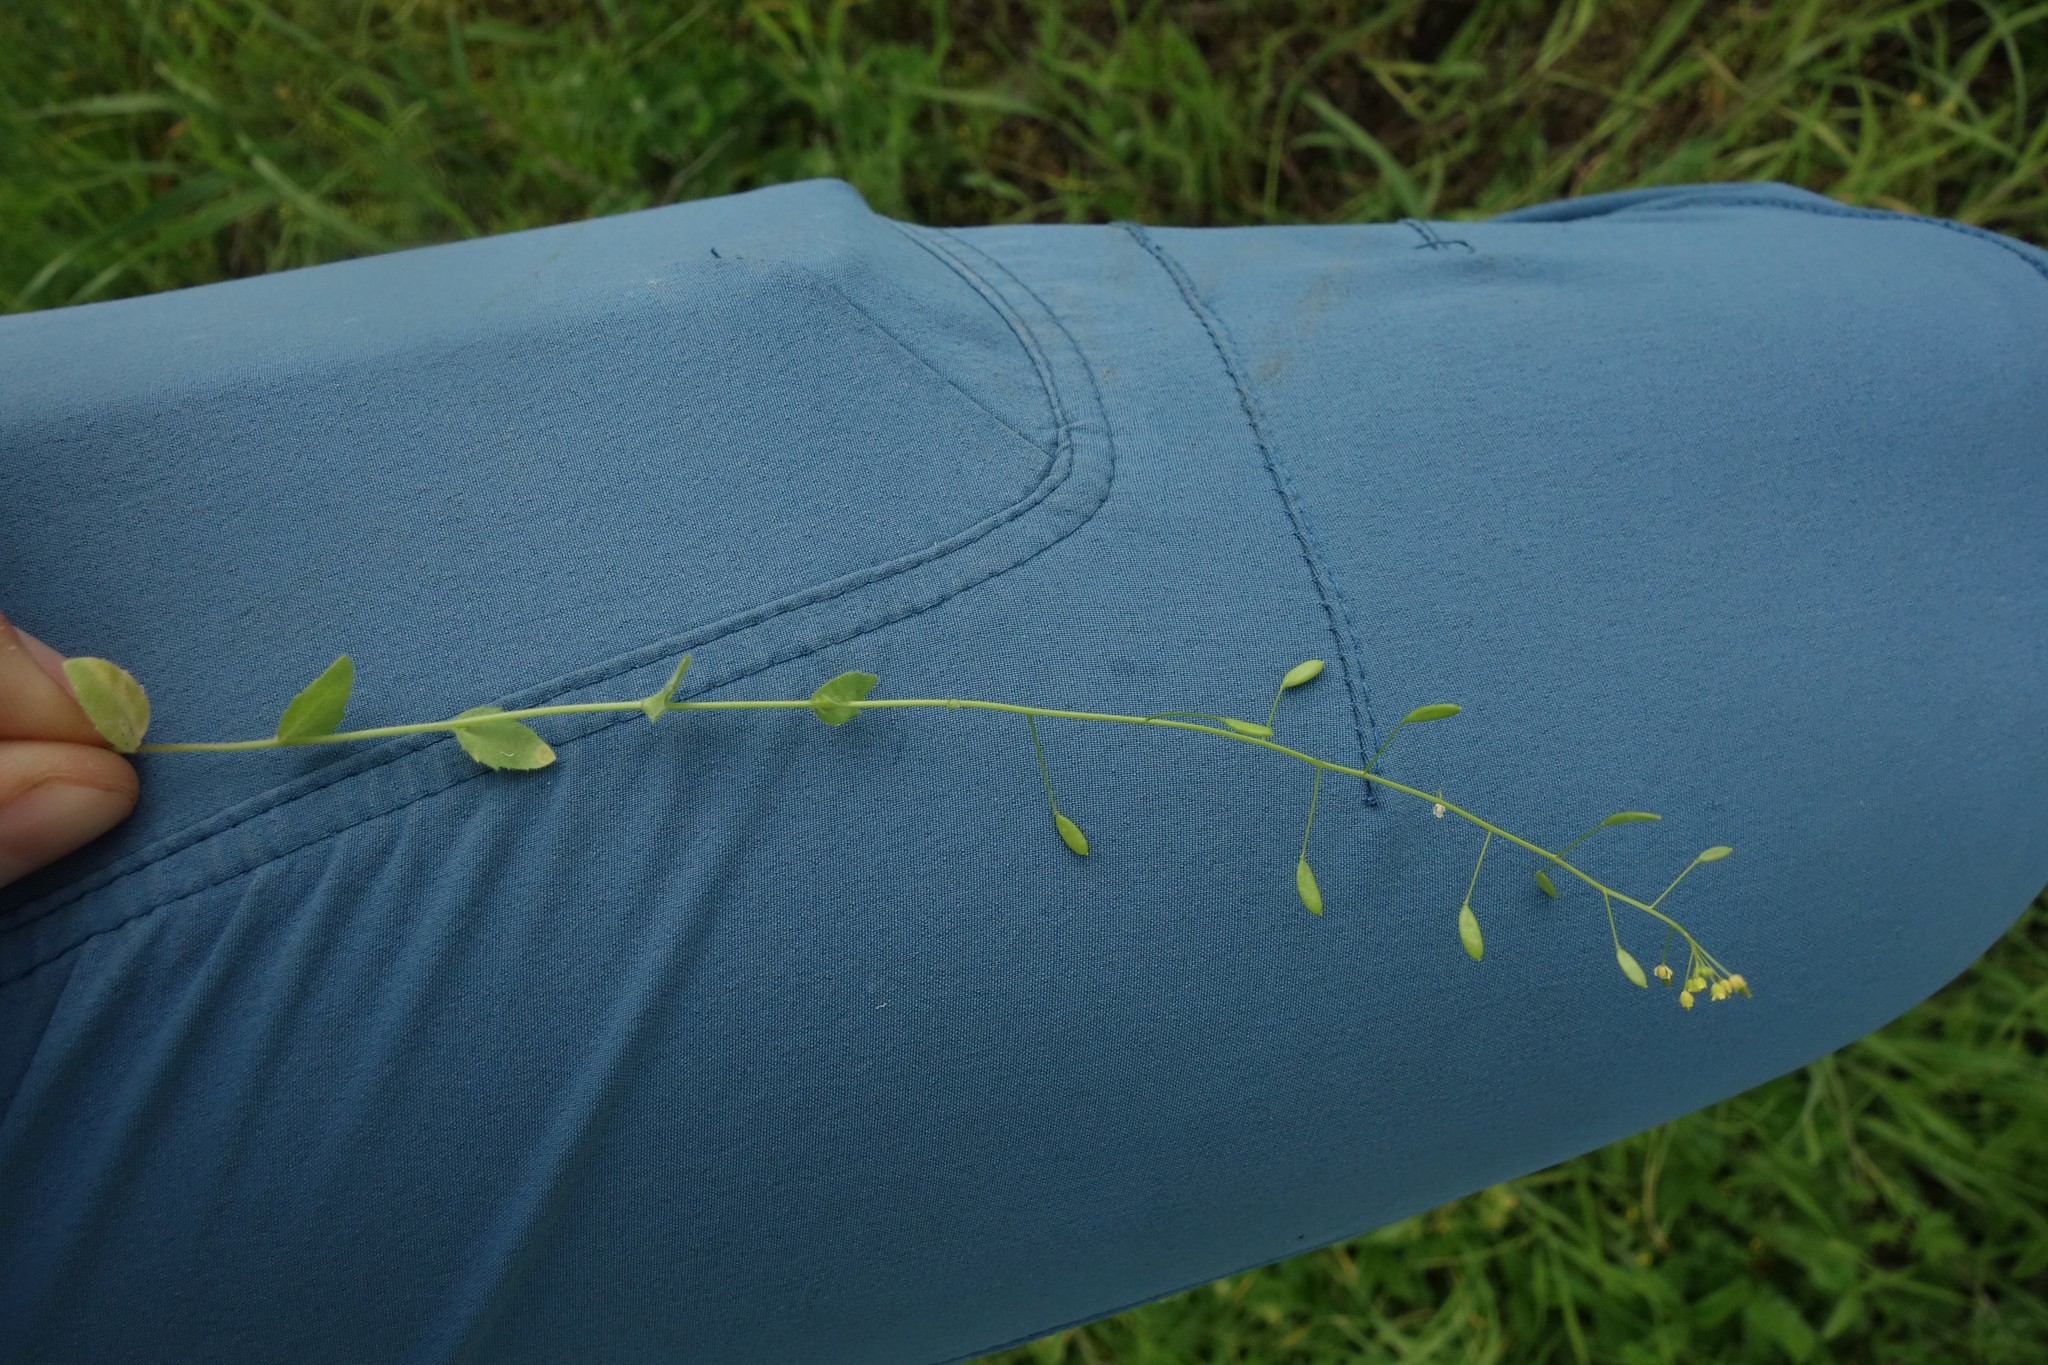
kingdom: Plantae
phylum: Tracheophyta
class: Magnoliopsida
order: Brassicales
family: Brassicaceae
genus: Draba
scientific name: Draba nemorosa
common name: Wood whitlow-grass
